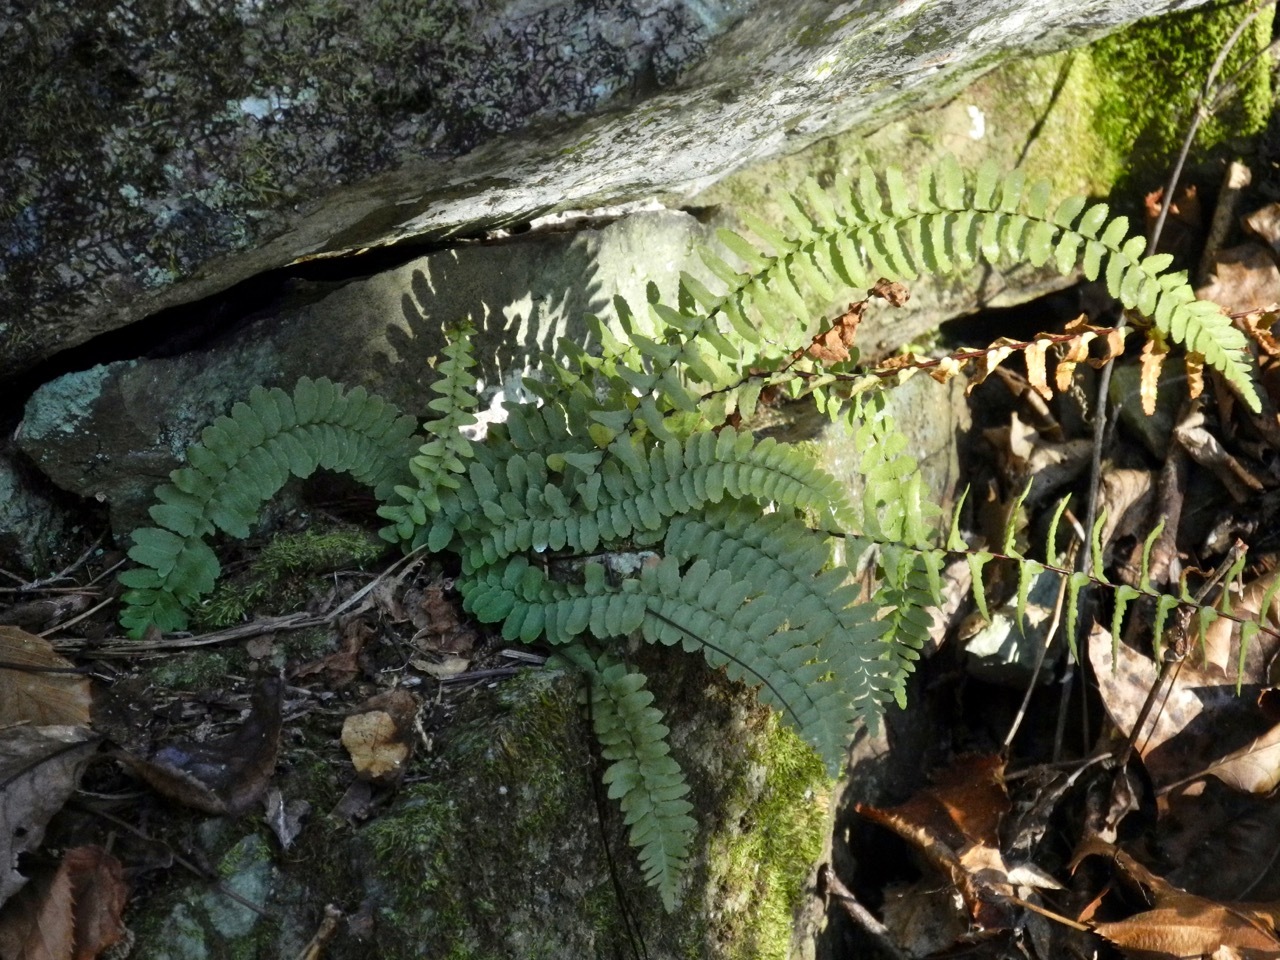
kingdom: Plantae
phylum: Tracheophyta
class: Polypodiopsida
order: Polypodiales
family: Aspleniaceae
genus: Asplenium
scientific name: Asplenium platyneuron
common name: Ebony spleenwort
